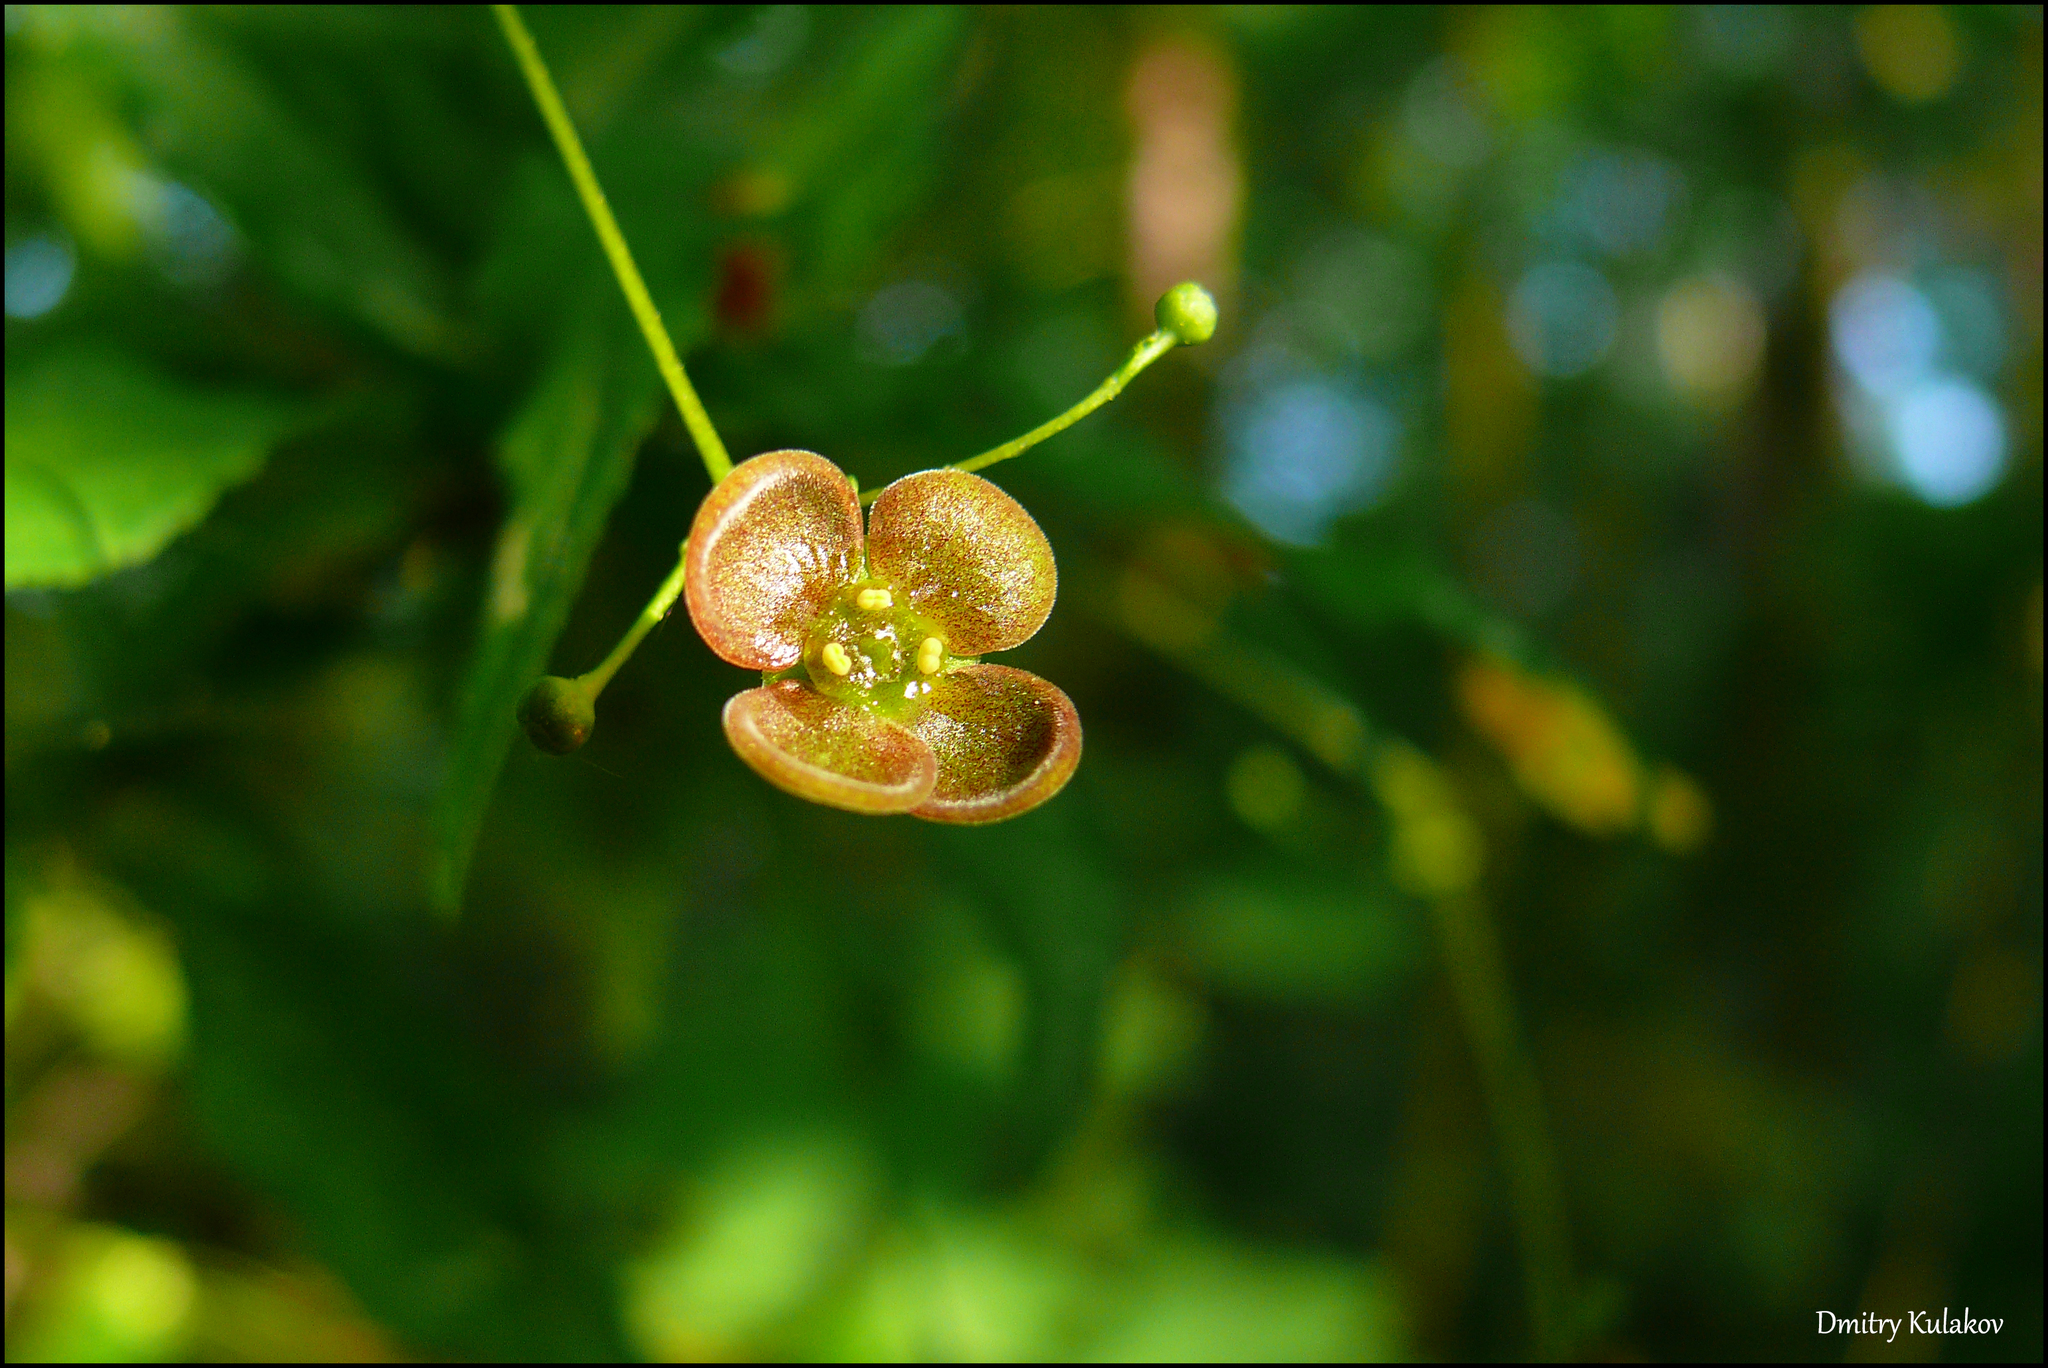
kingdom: Plantae
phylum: Tracheophyta
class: Magnoliopsida
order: Celastrales
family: Celastraceae
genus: Euonymus
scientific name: Euonymus verrucosus
